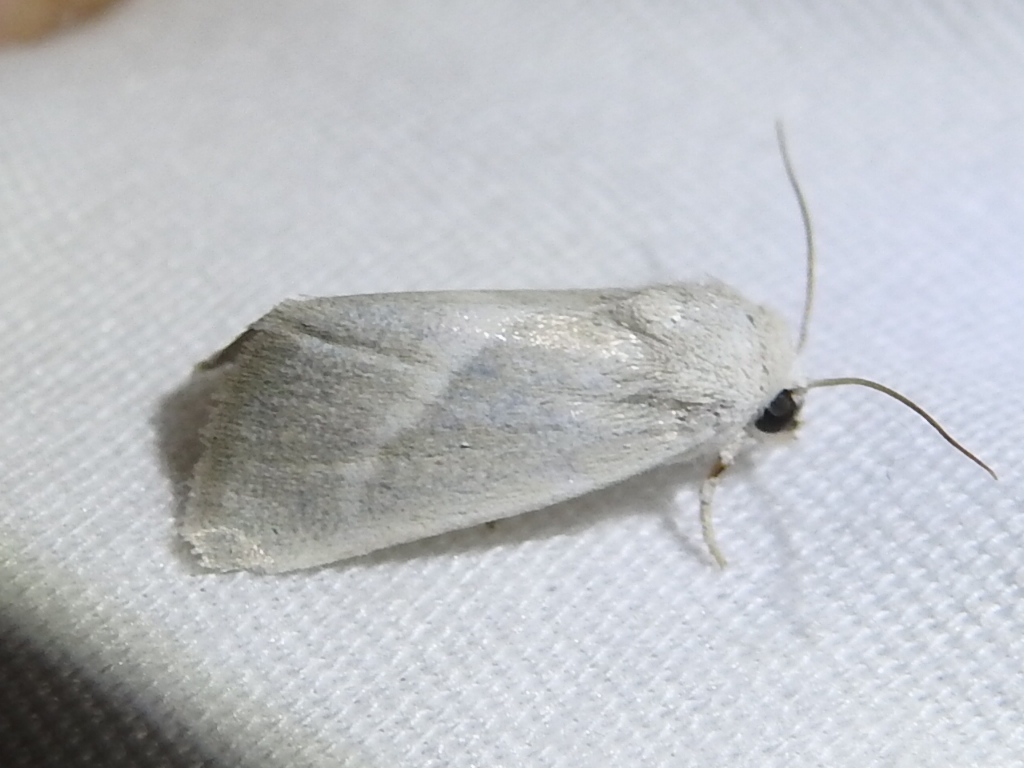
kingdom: Animalia
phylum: Arthropoda
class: Insecta
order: Lepidoptera
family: Noctuidae
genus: Leucocnemis
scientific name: Leucocnemis nivalis
